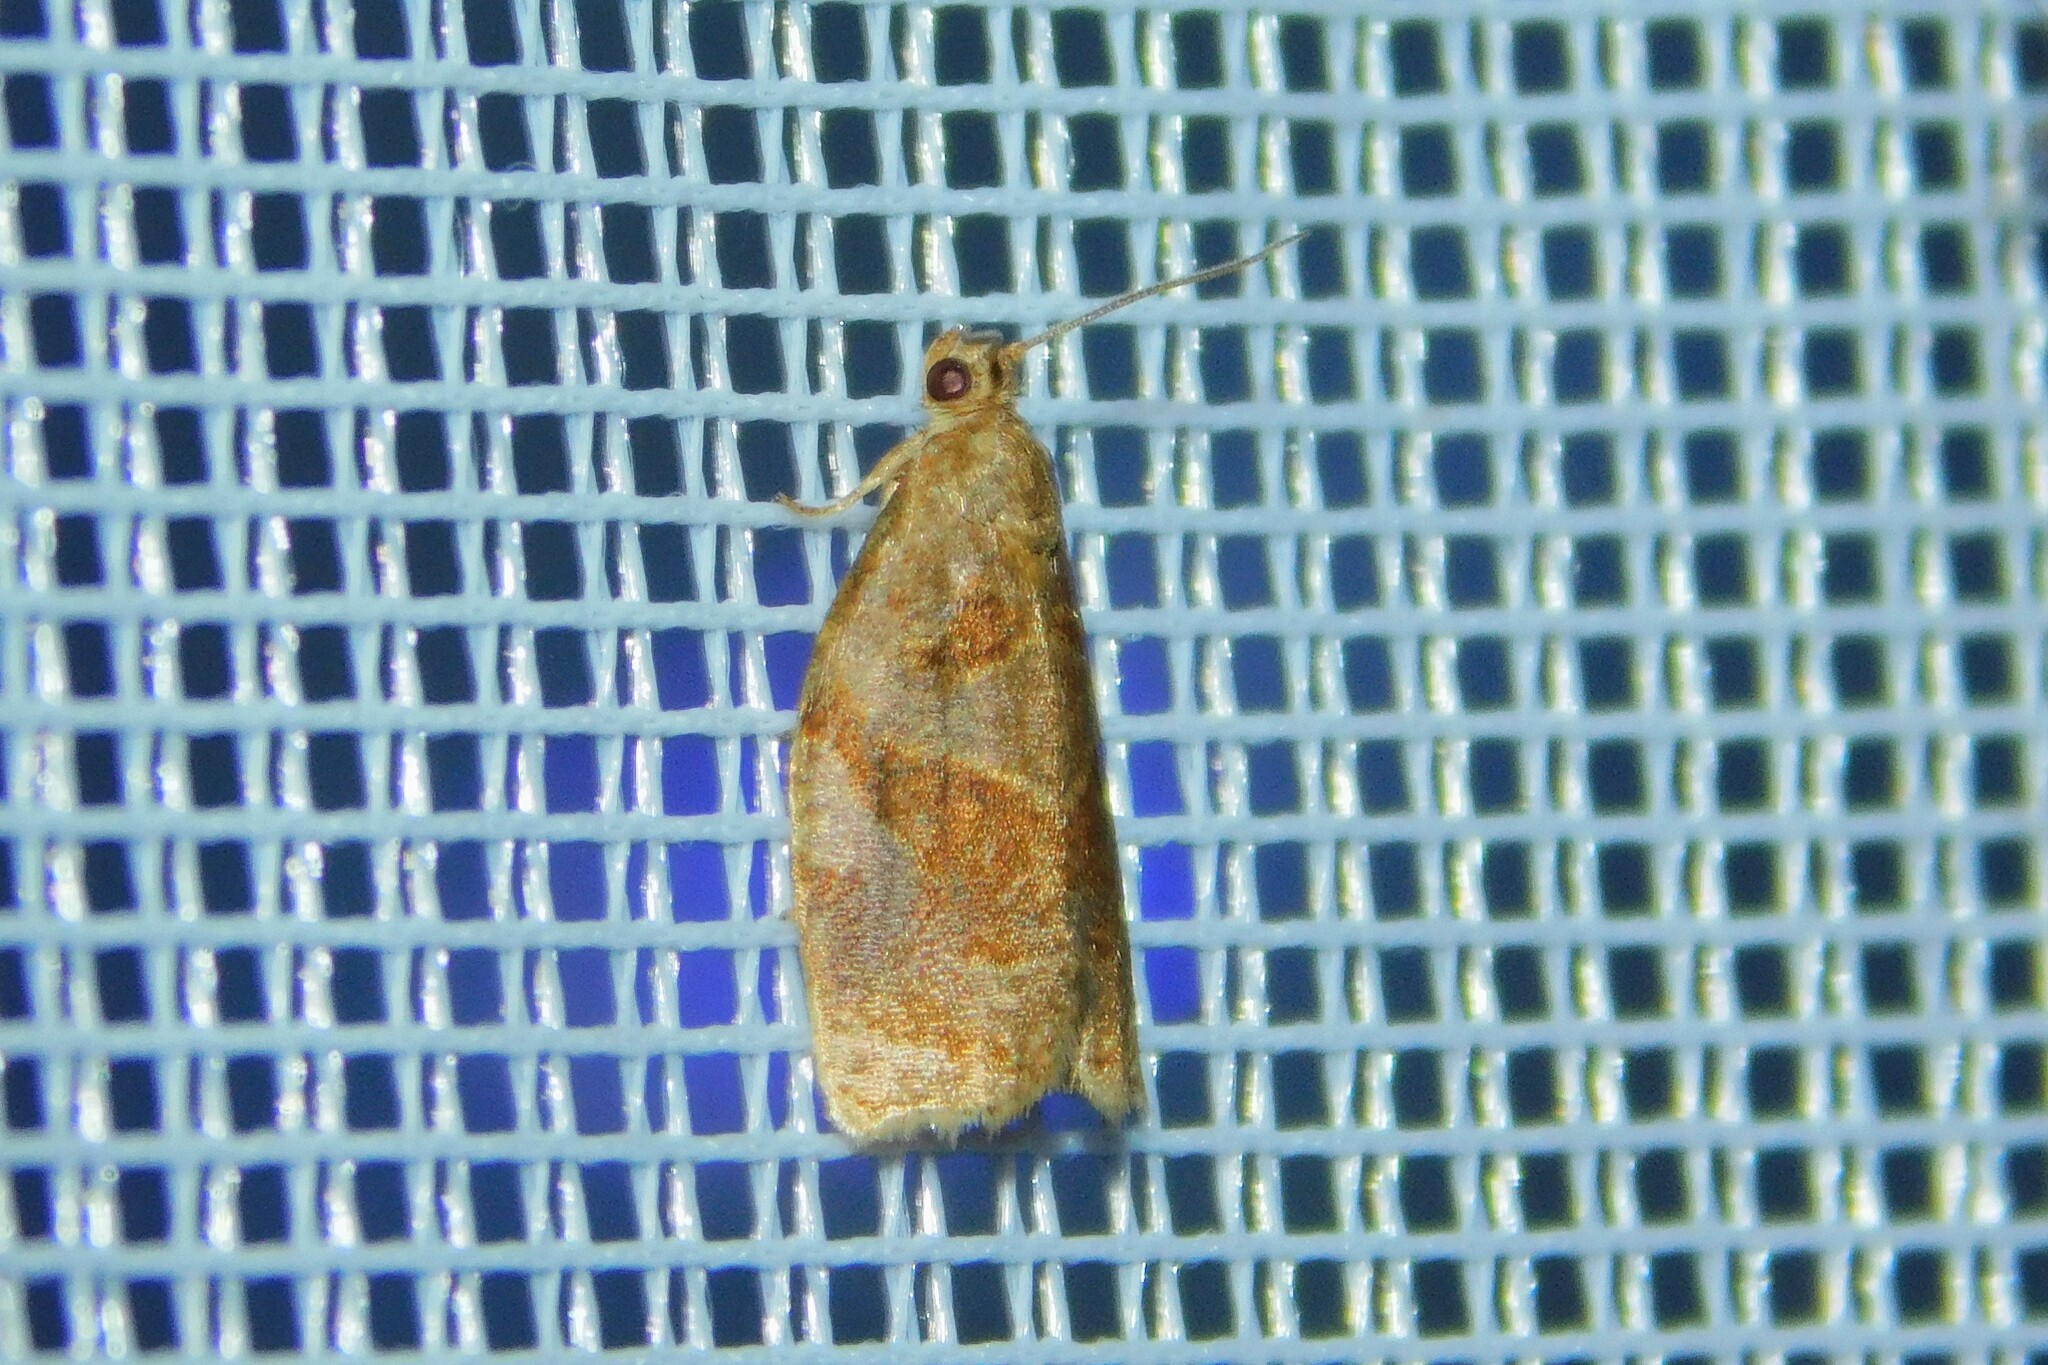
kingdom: Animalia
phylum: Arthropoda
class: Insecta
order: Lepidoptera
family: Tortricidae
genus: Archips
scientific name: Archips rosana
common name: Rose tortrix
